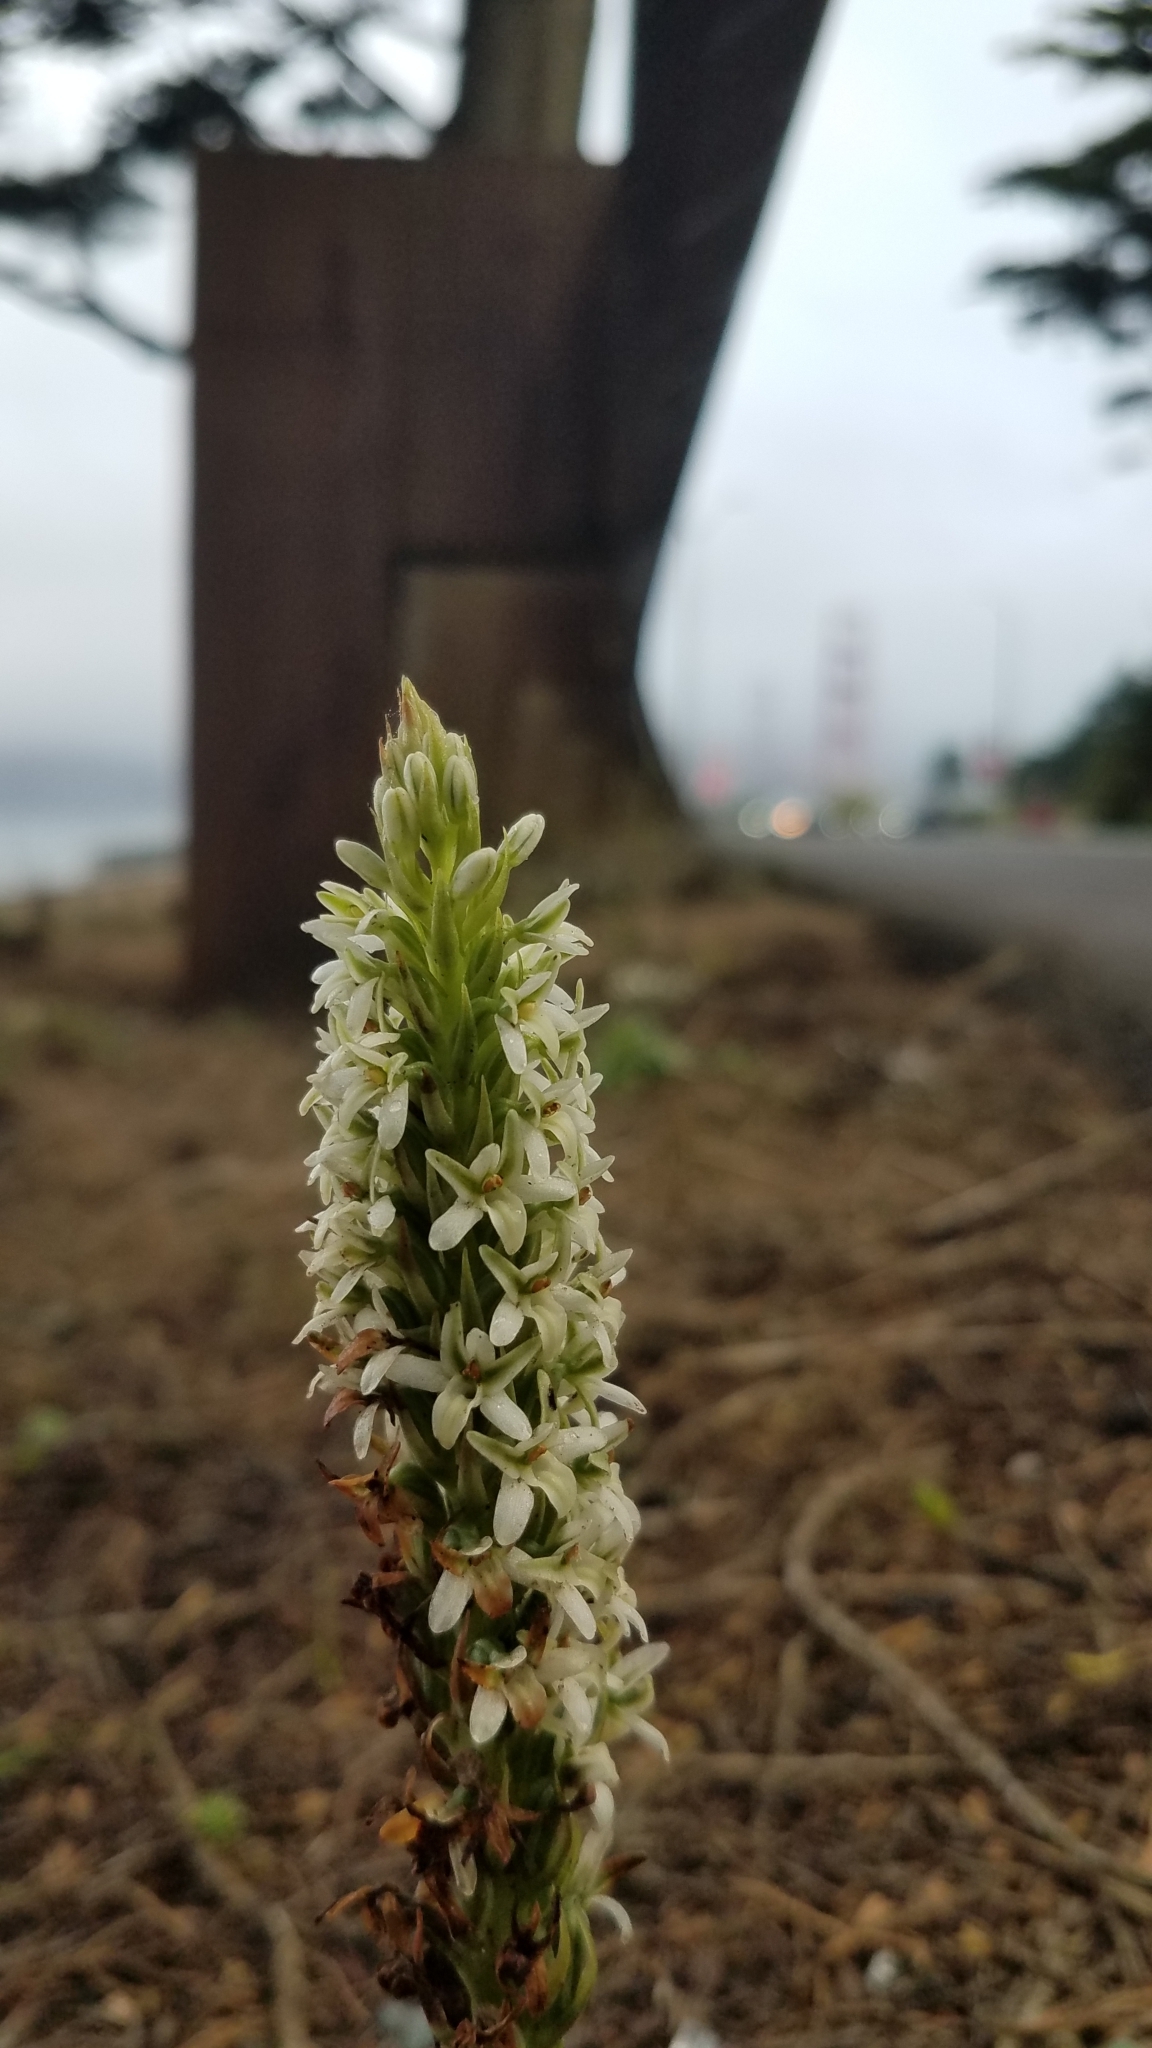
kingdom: Plantae
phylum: Tracheophyta
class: Liliopsida
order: Asparagales
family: Orchidaceae
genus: Platanthera
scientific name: Platanthera elegans
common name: Coast piperia
